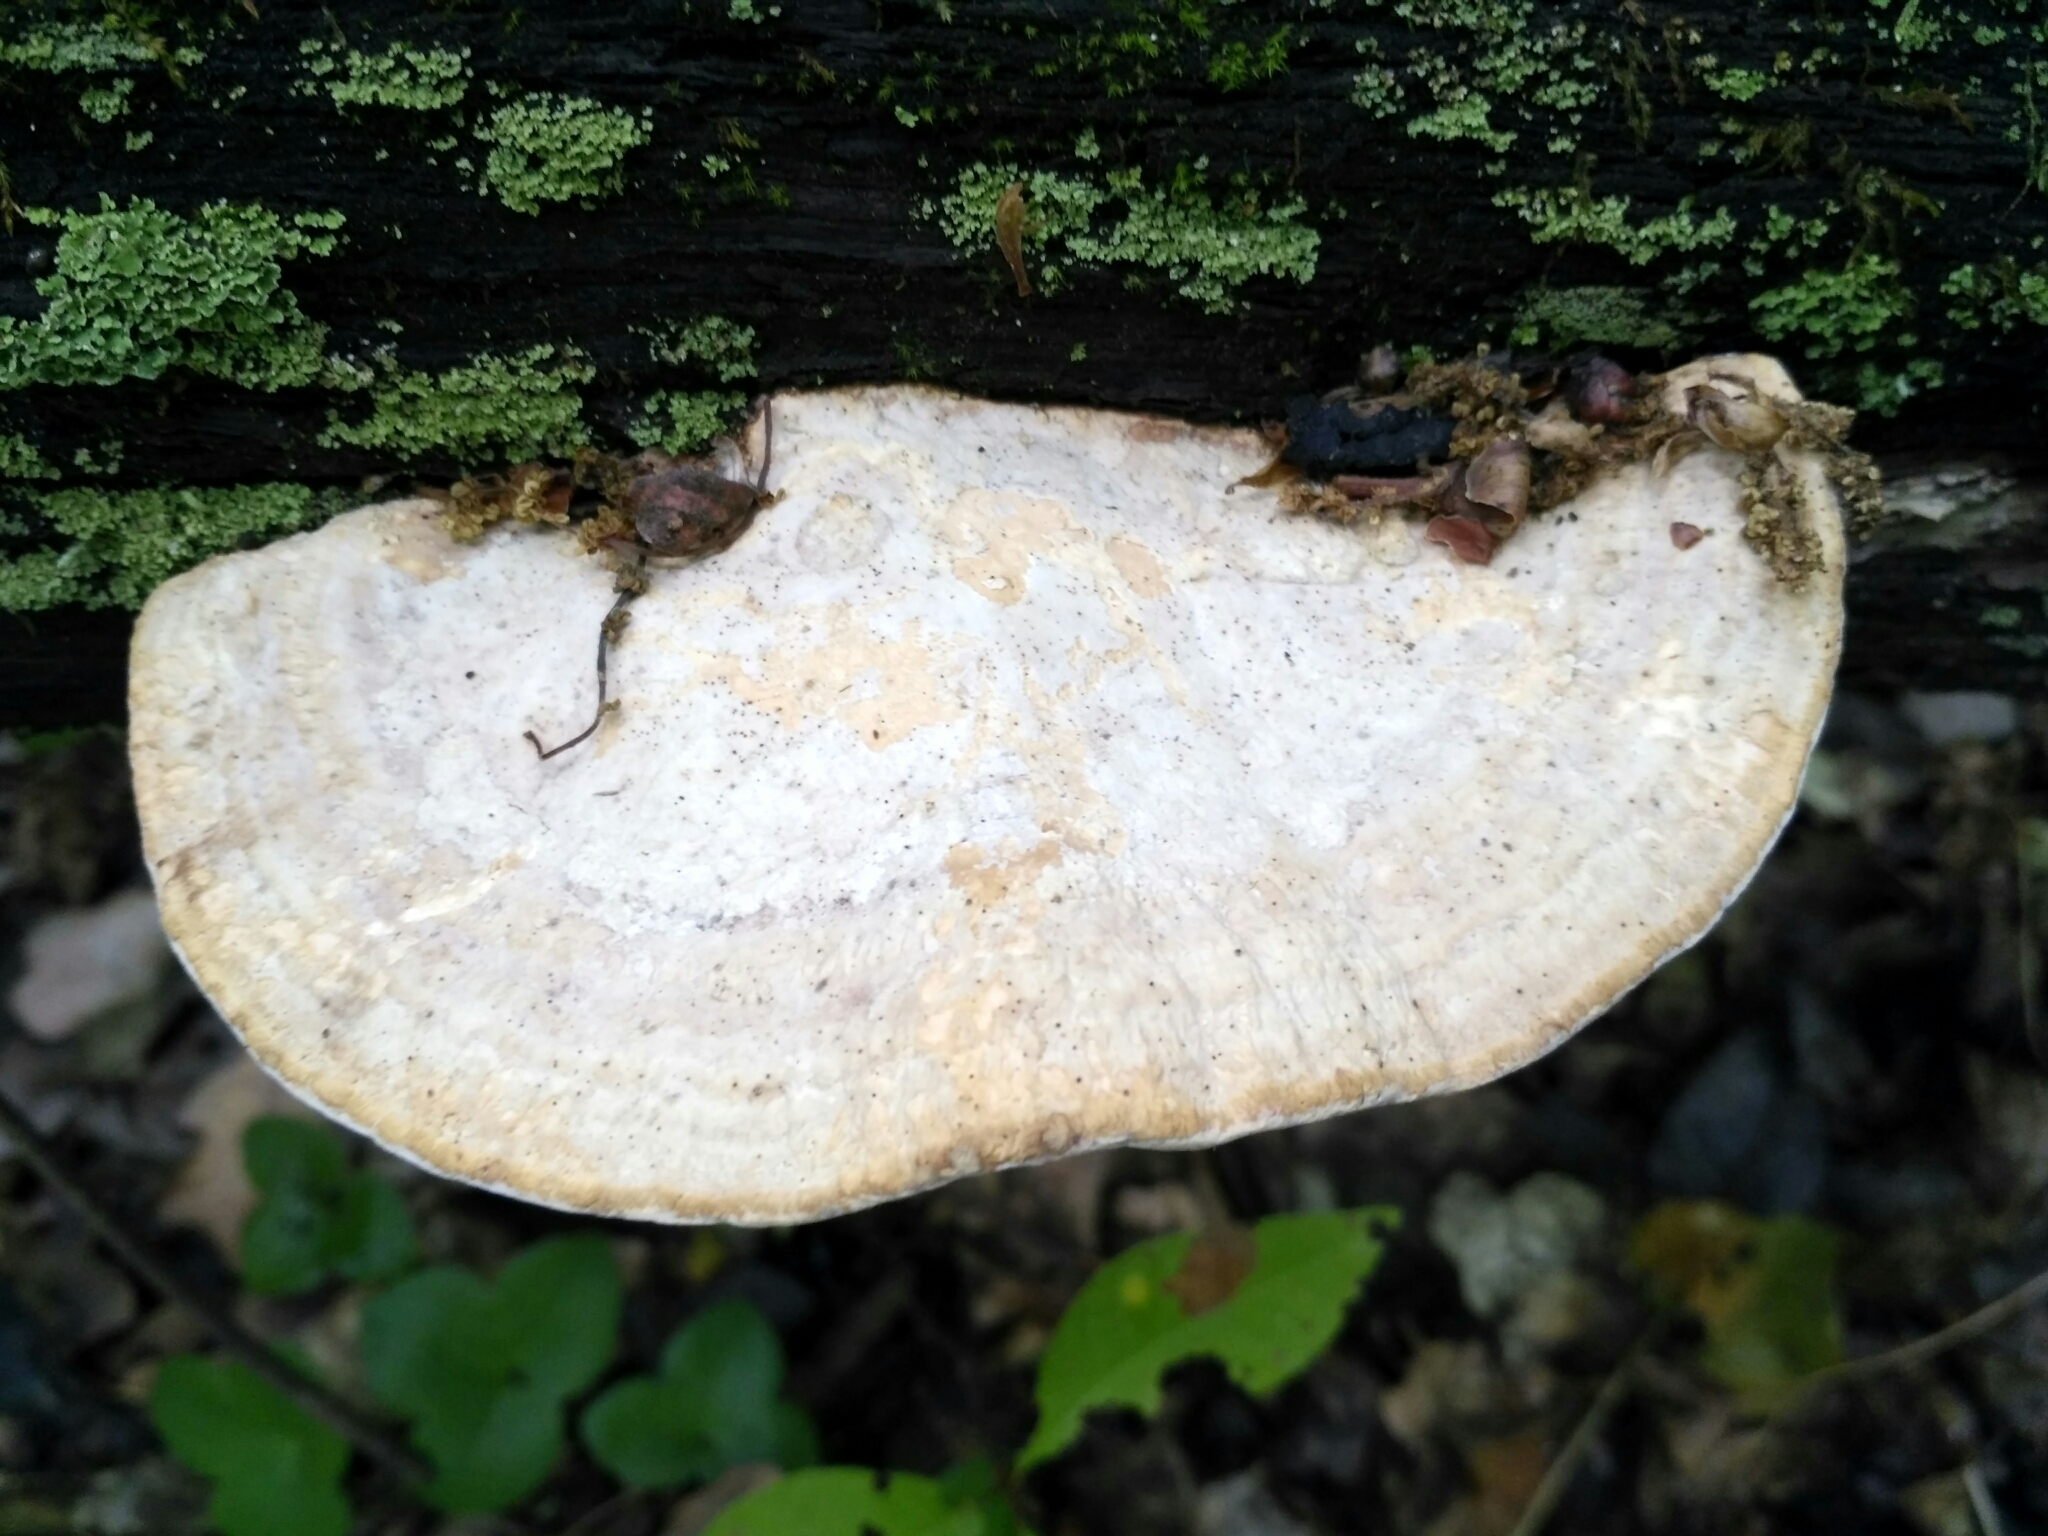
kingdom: Fungi
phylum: Basidiomycota
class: Agaricomycetes
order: Polyporales
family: Fomitopsidaceae
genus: Fomitopsis
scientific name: Fomitopsis
